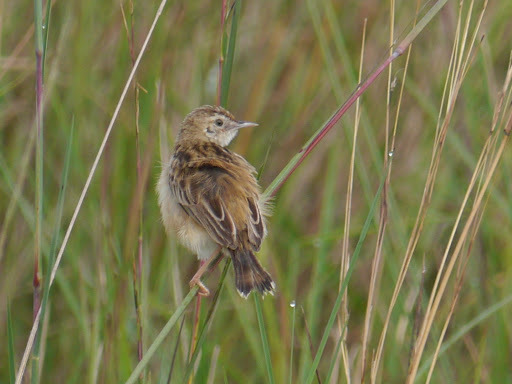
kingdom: Animalia
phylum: Chordata
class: Aves
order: Passeriformes
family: Cisticolidae
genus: Cisticola
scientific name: Cisticola brunnescens
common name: Pectoral-patch cisticola
